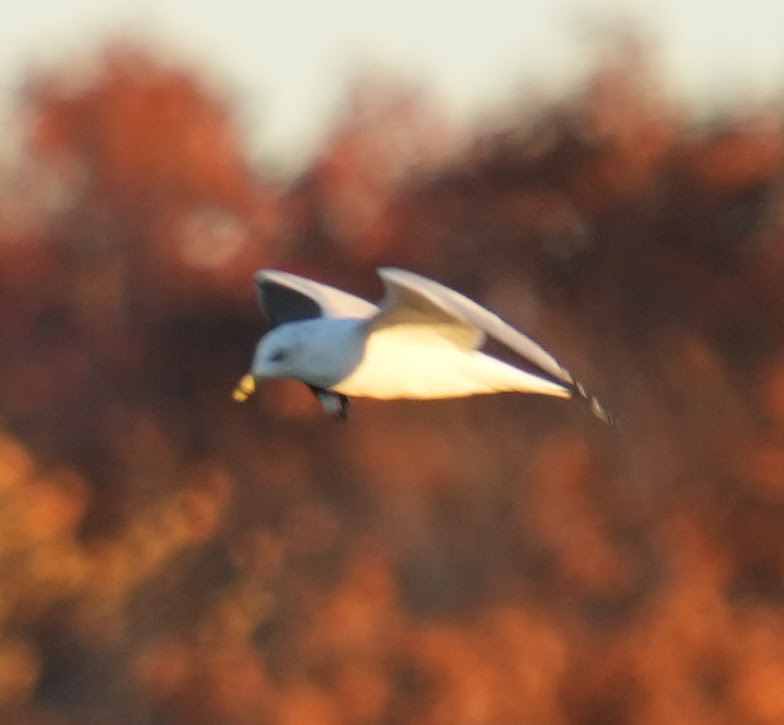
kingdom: Animalia
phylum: Chordata
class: Aves
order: Charadriiformes
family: Laridae
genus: Larus
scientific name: Larus delawarensis
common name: Ring-billed gull
